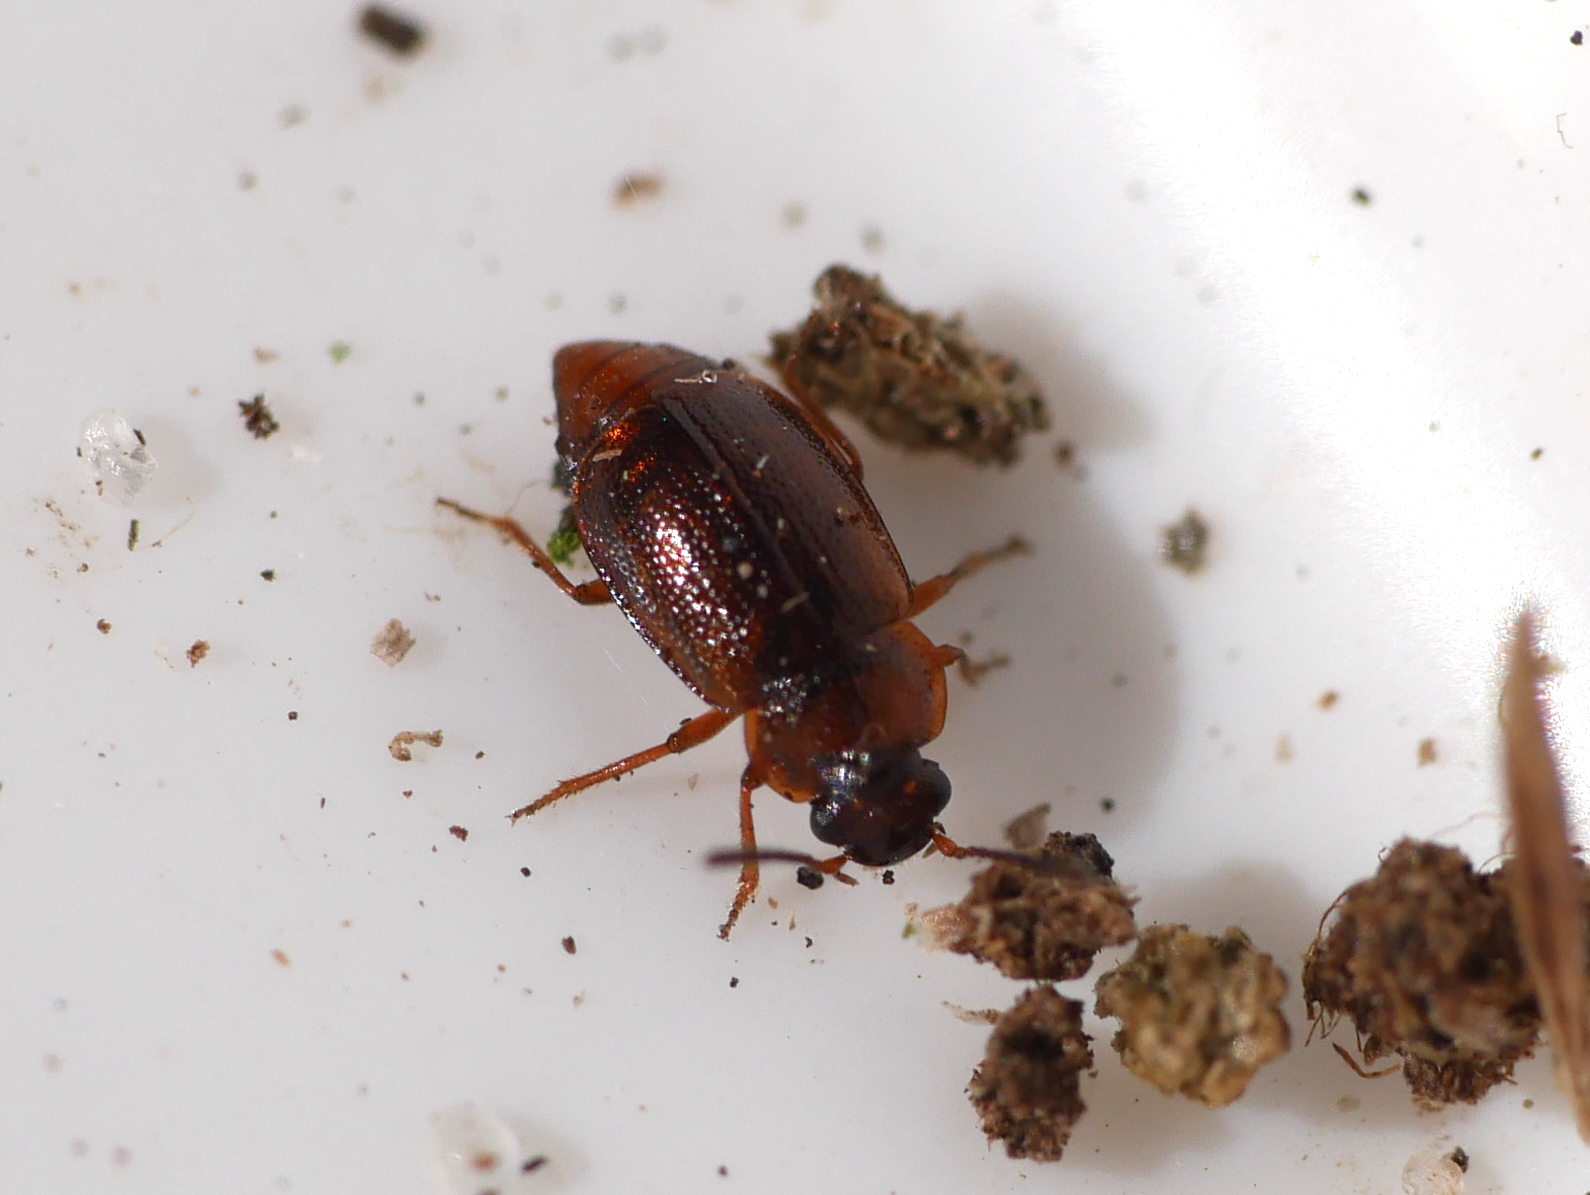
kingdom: Animalia
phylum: Arthropoda
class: Insecta
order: Coleoptera
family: Staphylinidae
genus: Anthobium
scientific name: Anthobium atrocephalum
